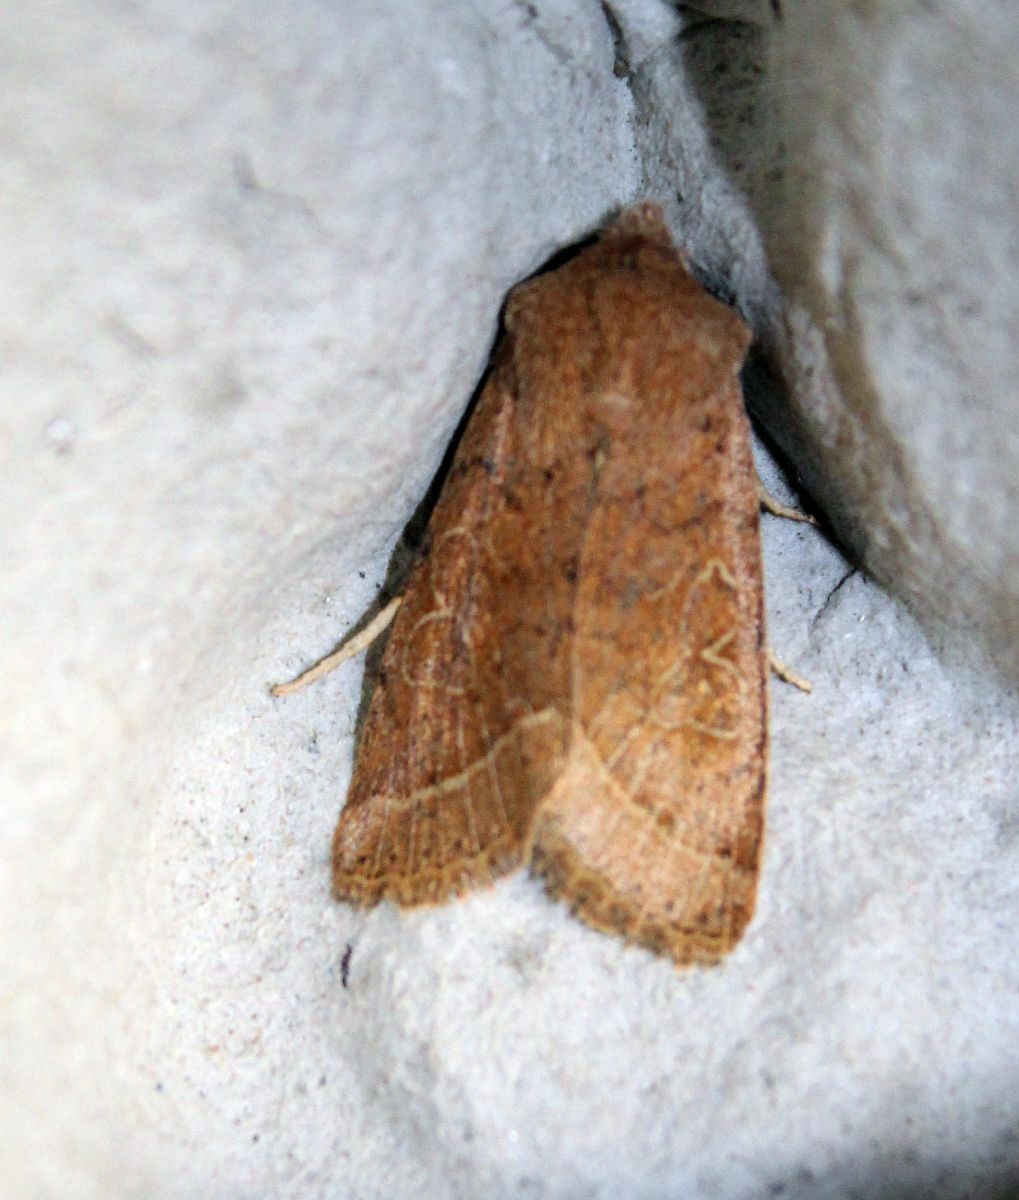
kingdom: Animalia
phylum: Arthropoda
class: Insecta
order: Lepidoptera
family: Noctuidae
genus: Orthosia
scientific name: Orthosia cerasi
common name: Common quaker
